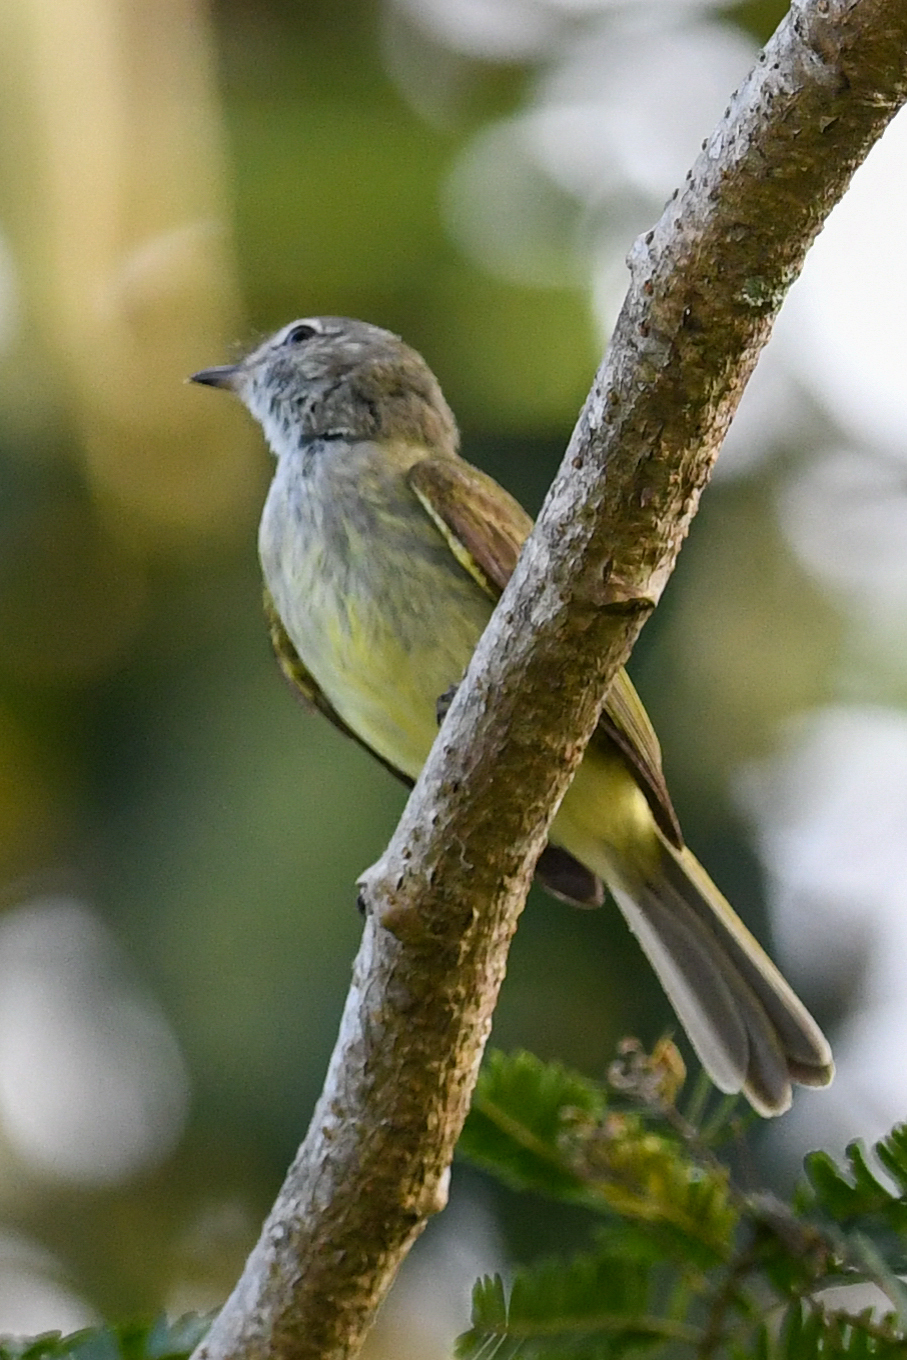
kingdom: Animalia
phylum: Chordata
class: Aves
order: Passeriformes
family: Tyrannidae
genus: Myiopagis
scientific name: Myiopagis viridicata
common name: Greenish elaenia
